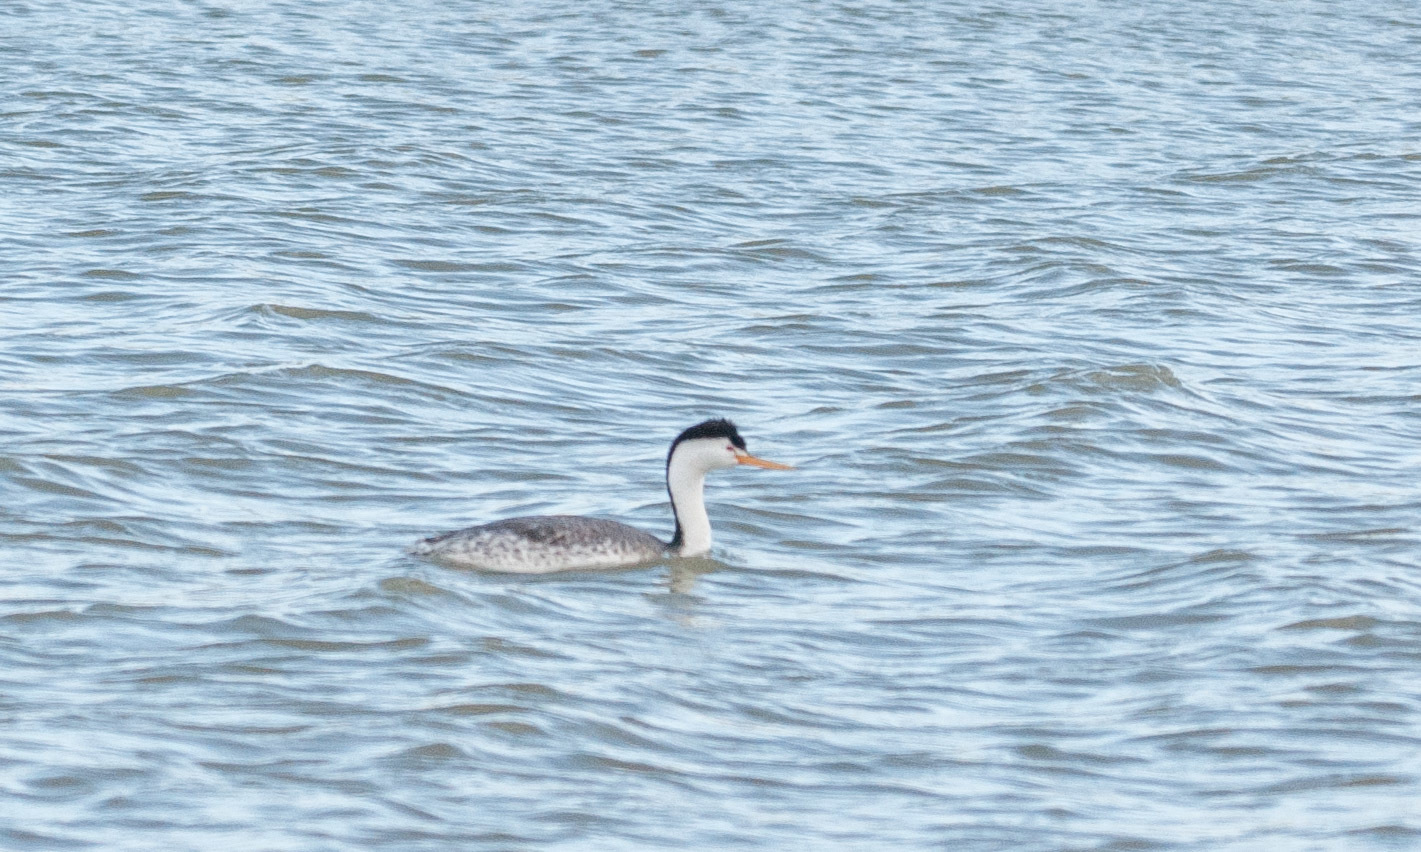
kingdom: Animalia
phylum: Chordata
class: Aves
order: Podicipediformes
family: Podicipedidae
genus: Aechmophorus
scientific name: Aechmophorus clarkii
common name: Clark's grebe
